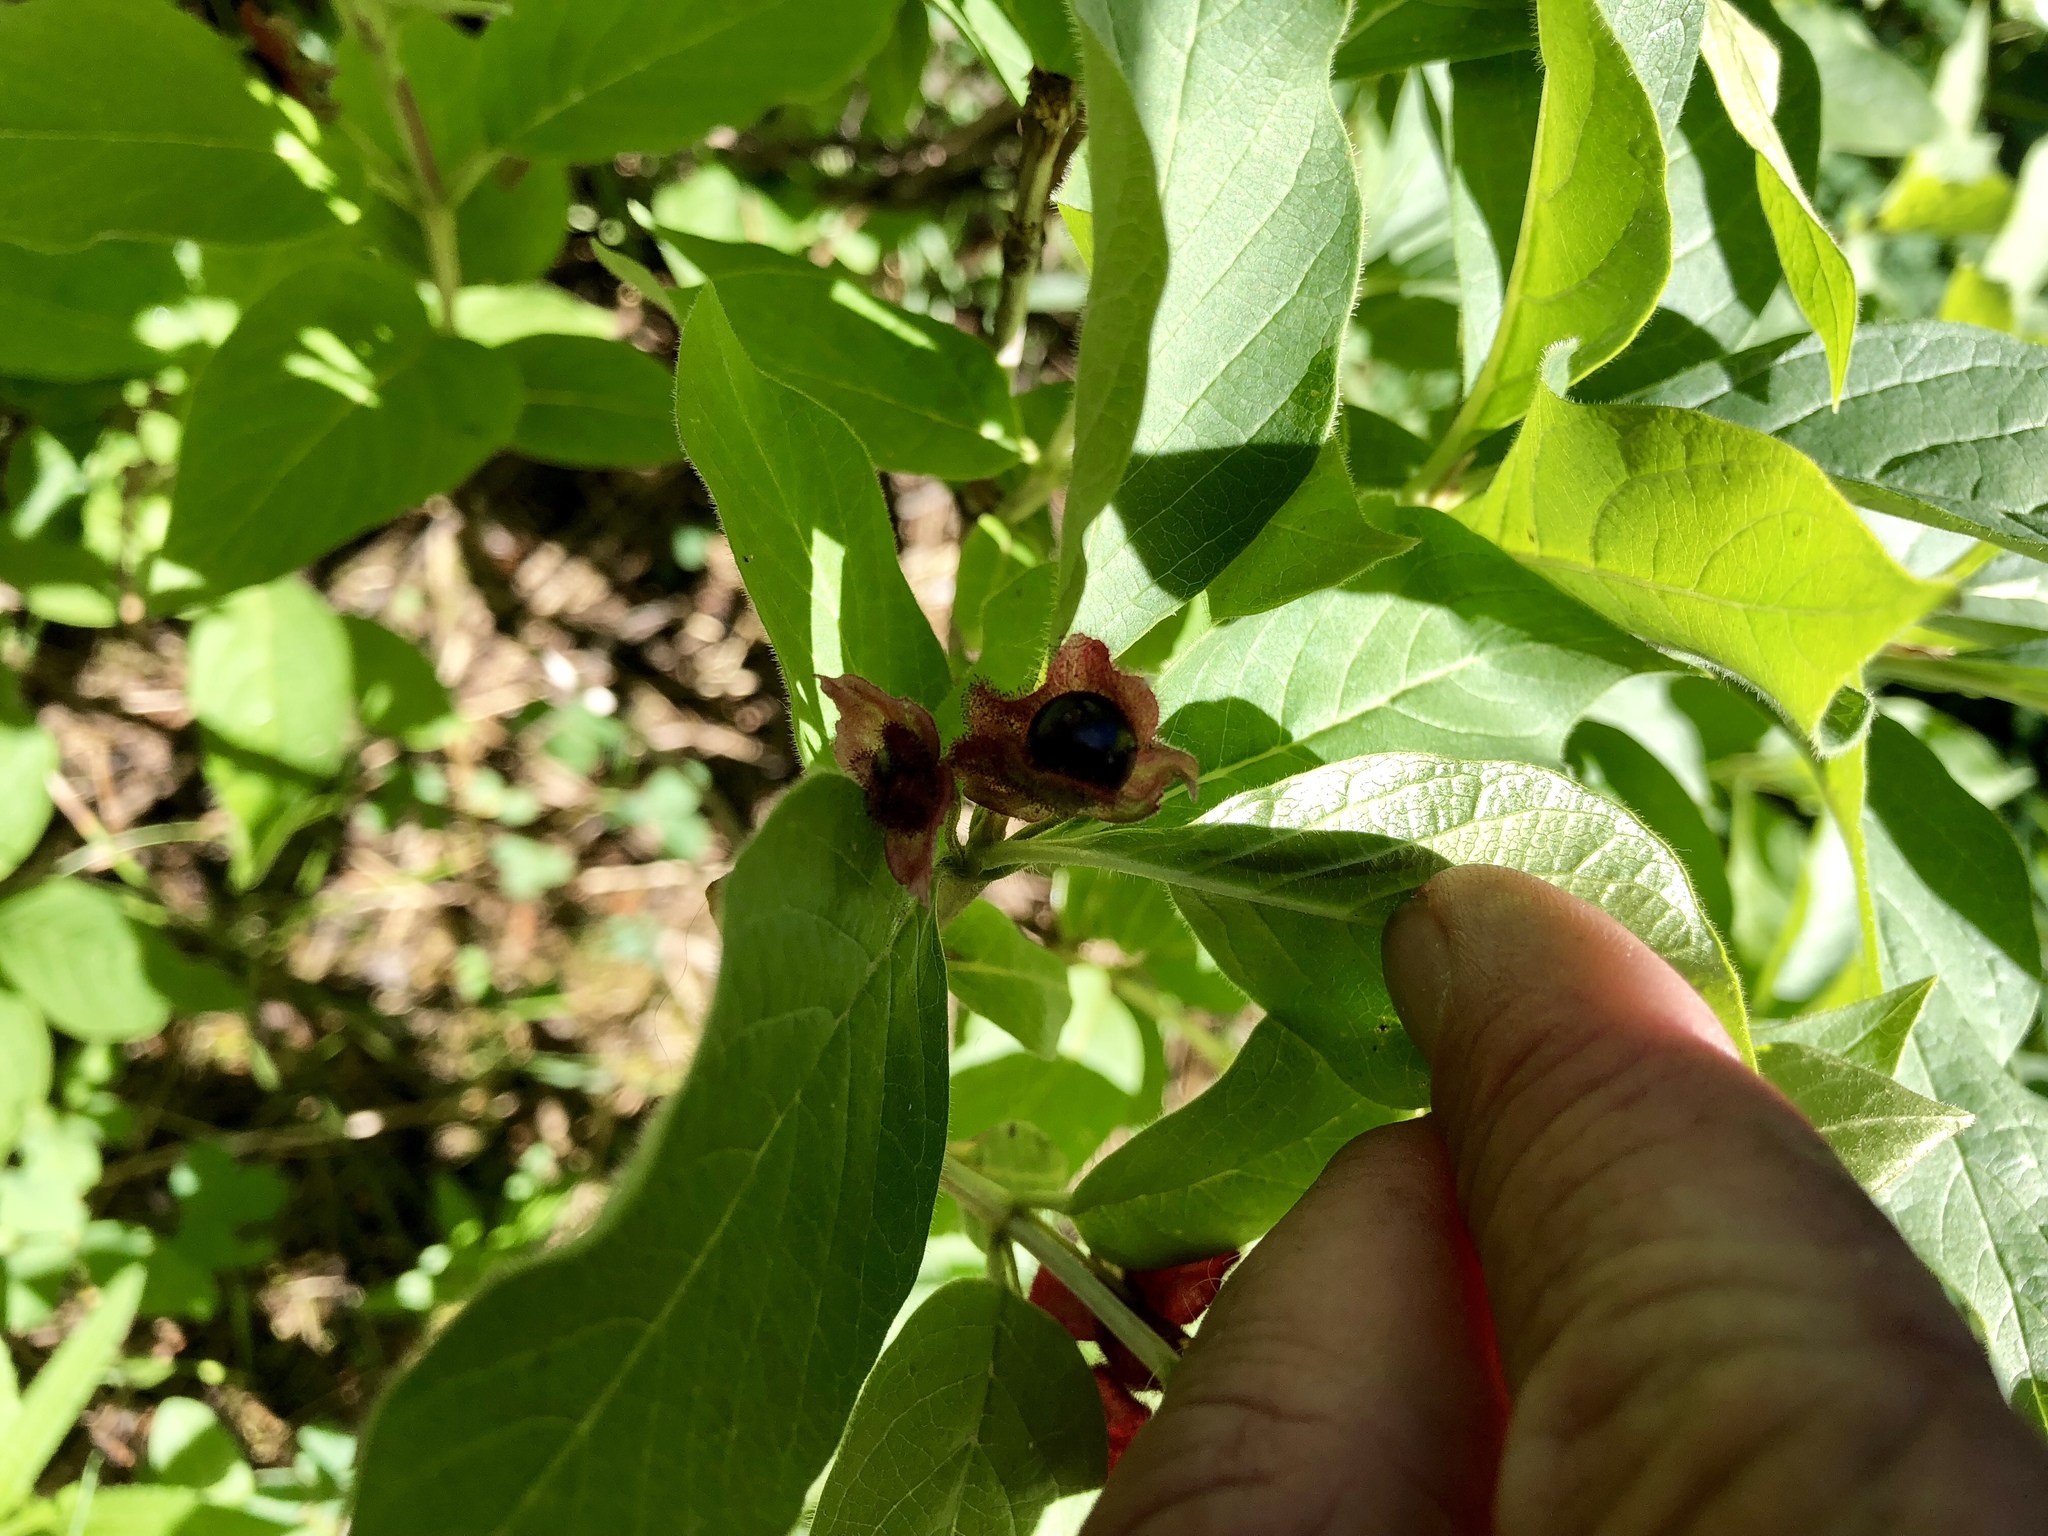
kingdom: Plantae
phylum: Tracheophyta
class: Magnoliopsida
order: Dipsacales
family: Caprifoliaceae
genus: Lonicera
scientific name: Lonicera involucrata
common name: Californian honeysuckle
